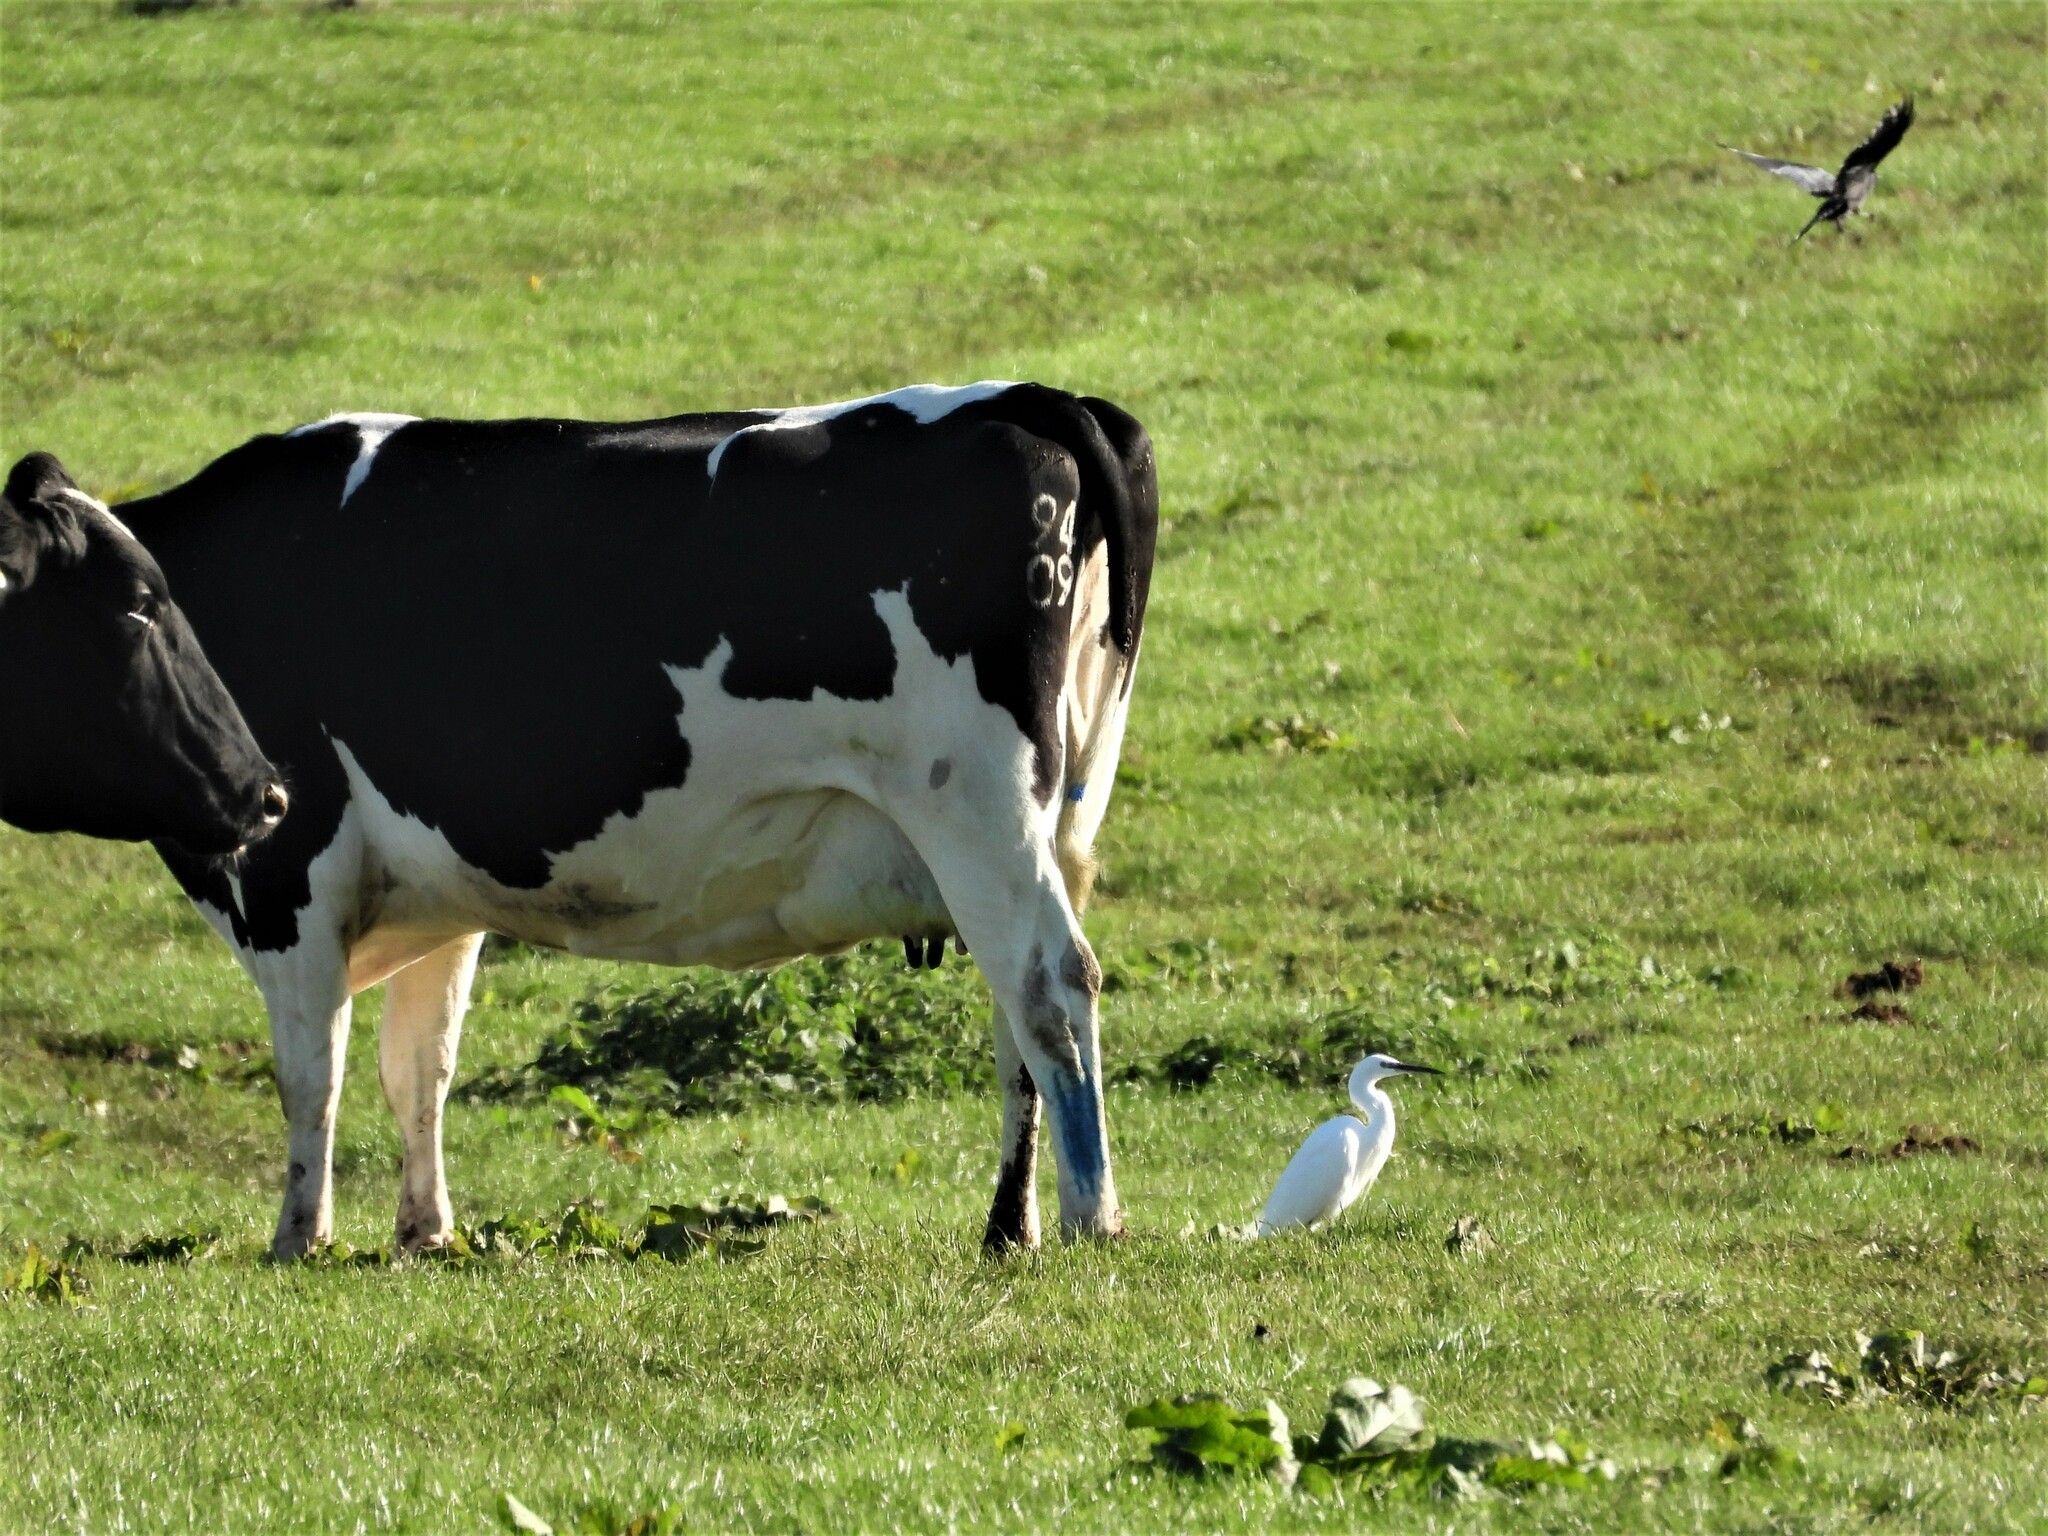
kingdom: Animalia
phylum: Chordata
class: Aves
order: Pelecaniformes
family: Ardeidae
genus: Egretta
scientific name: Egretta garzetta
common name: Little egret
